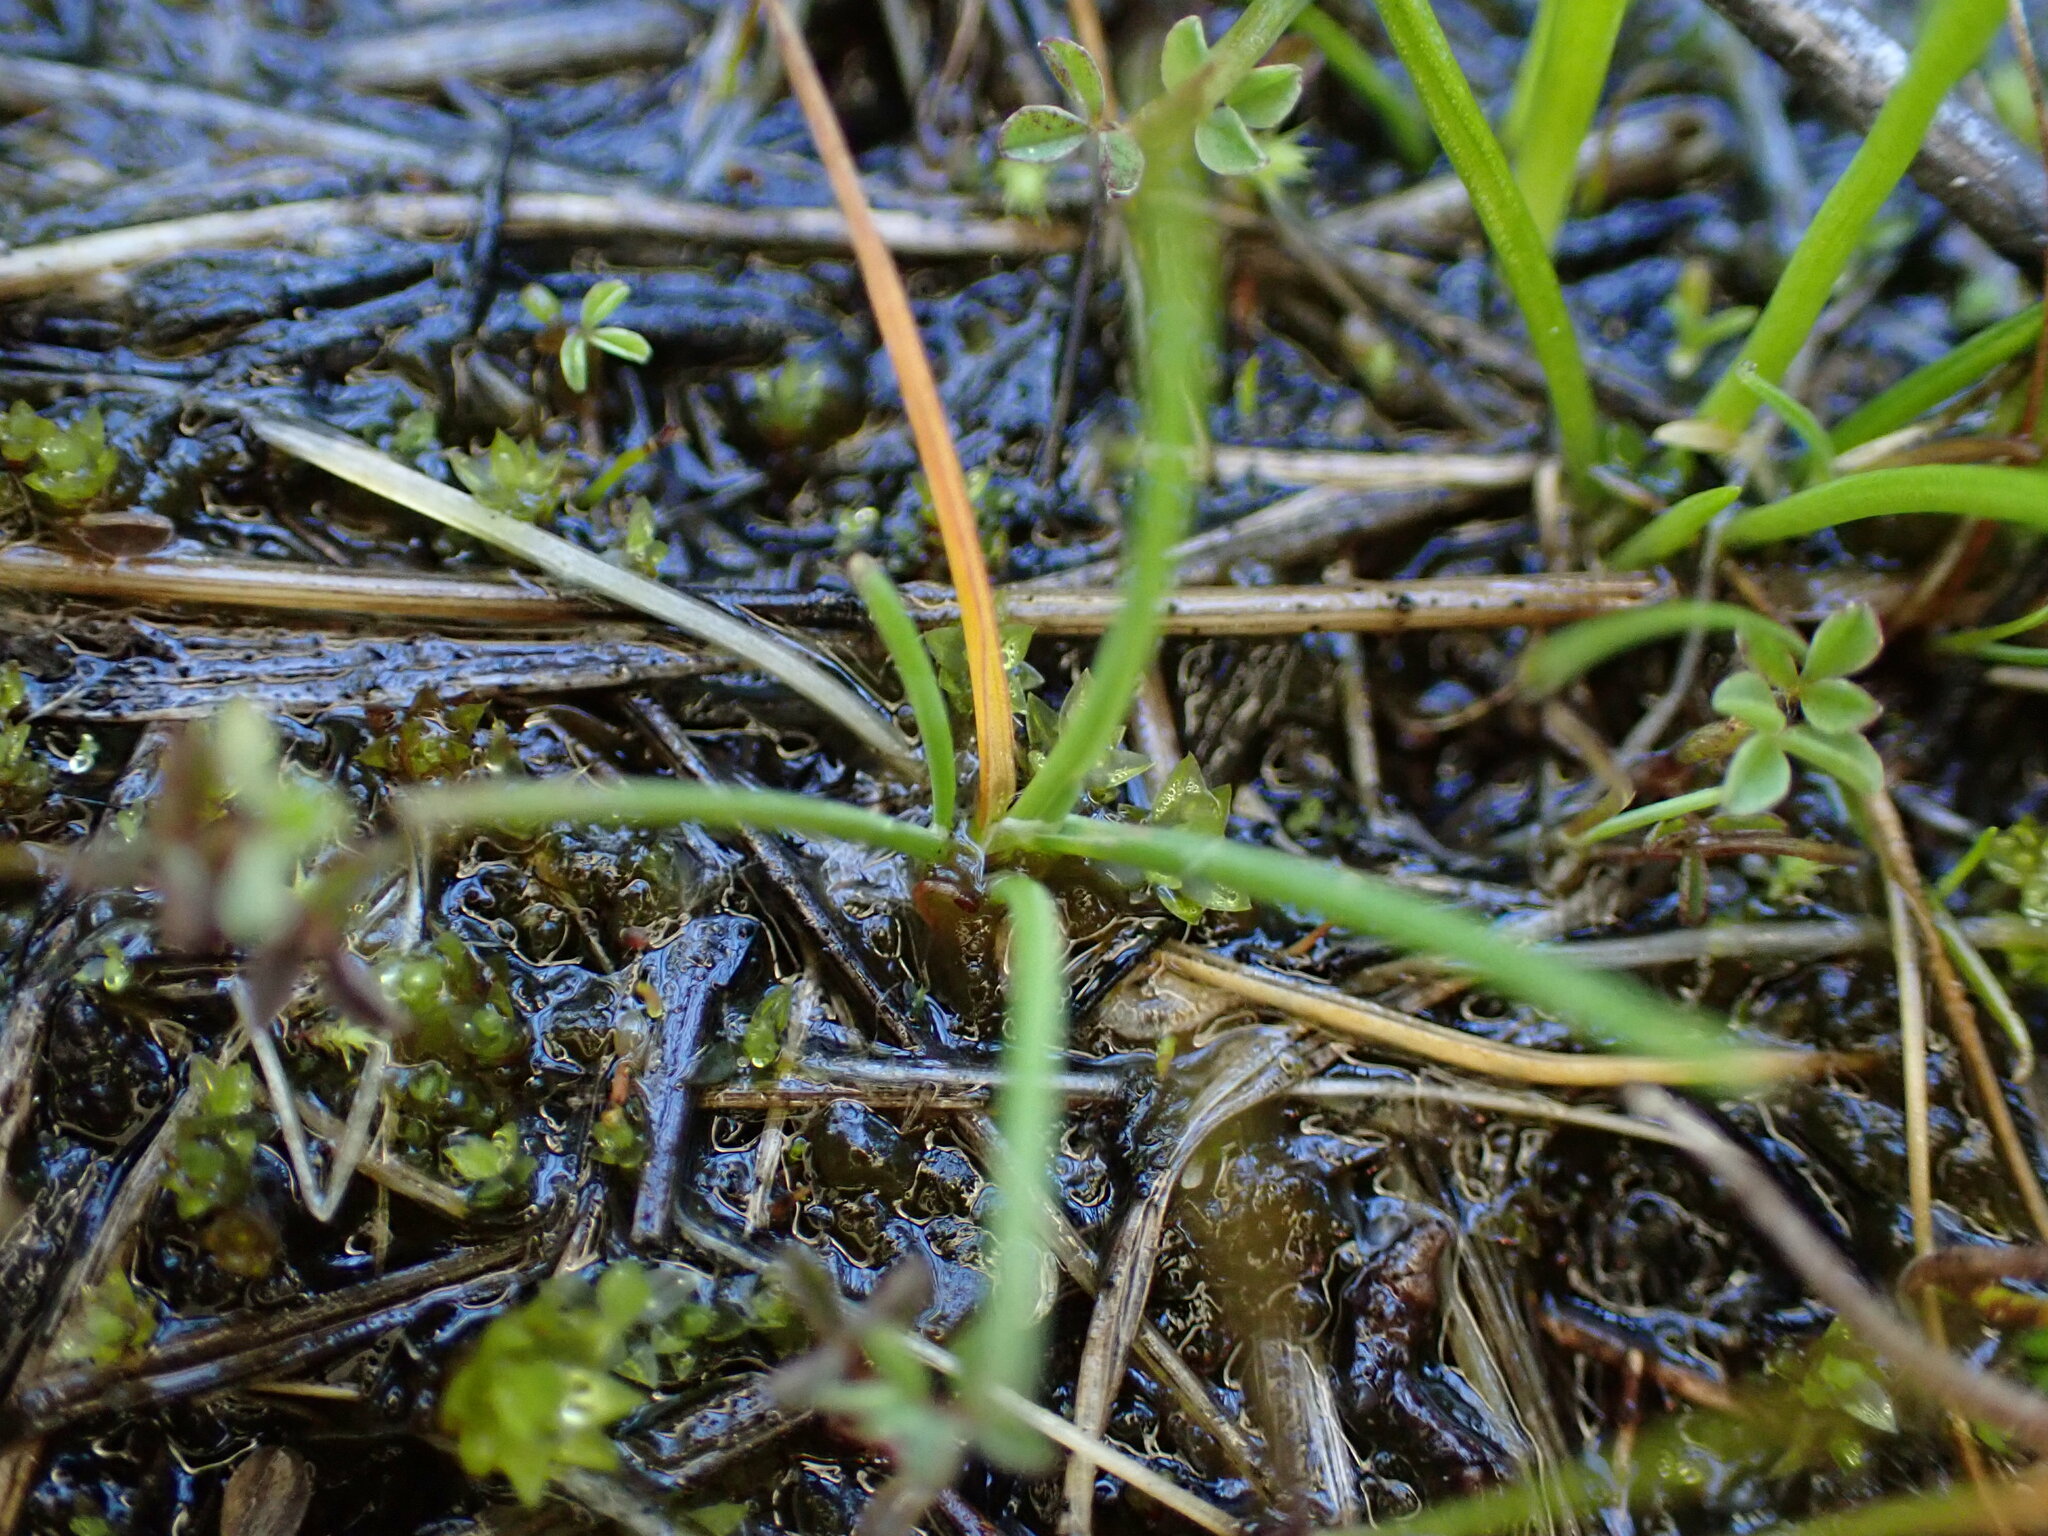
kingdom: Plantae
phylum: Tracheophyta
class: Lycopodiopsida
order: Isoetales
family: Isoetaceae
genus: Isoetes
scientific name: Isoetes nuttallii
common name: Nuttall's quillwort
